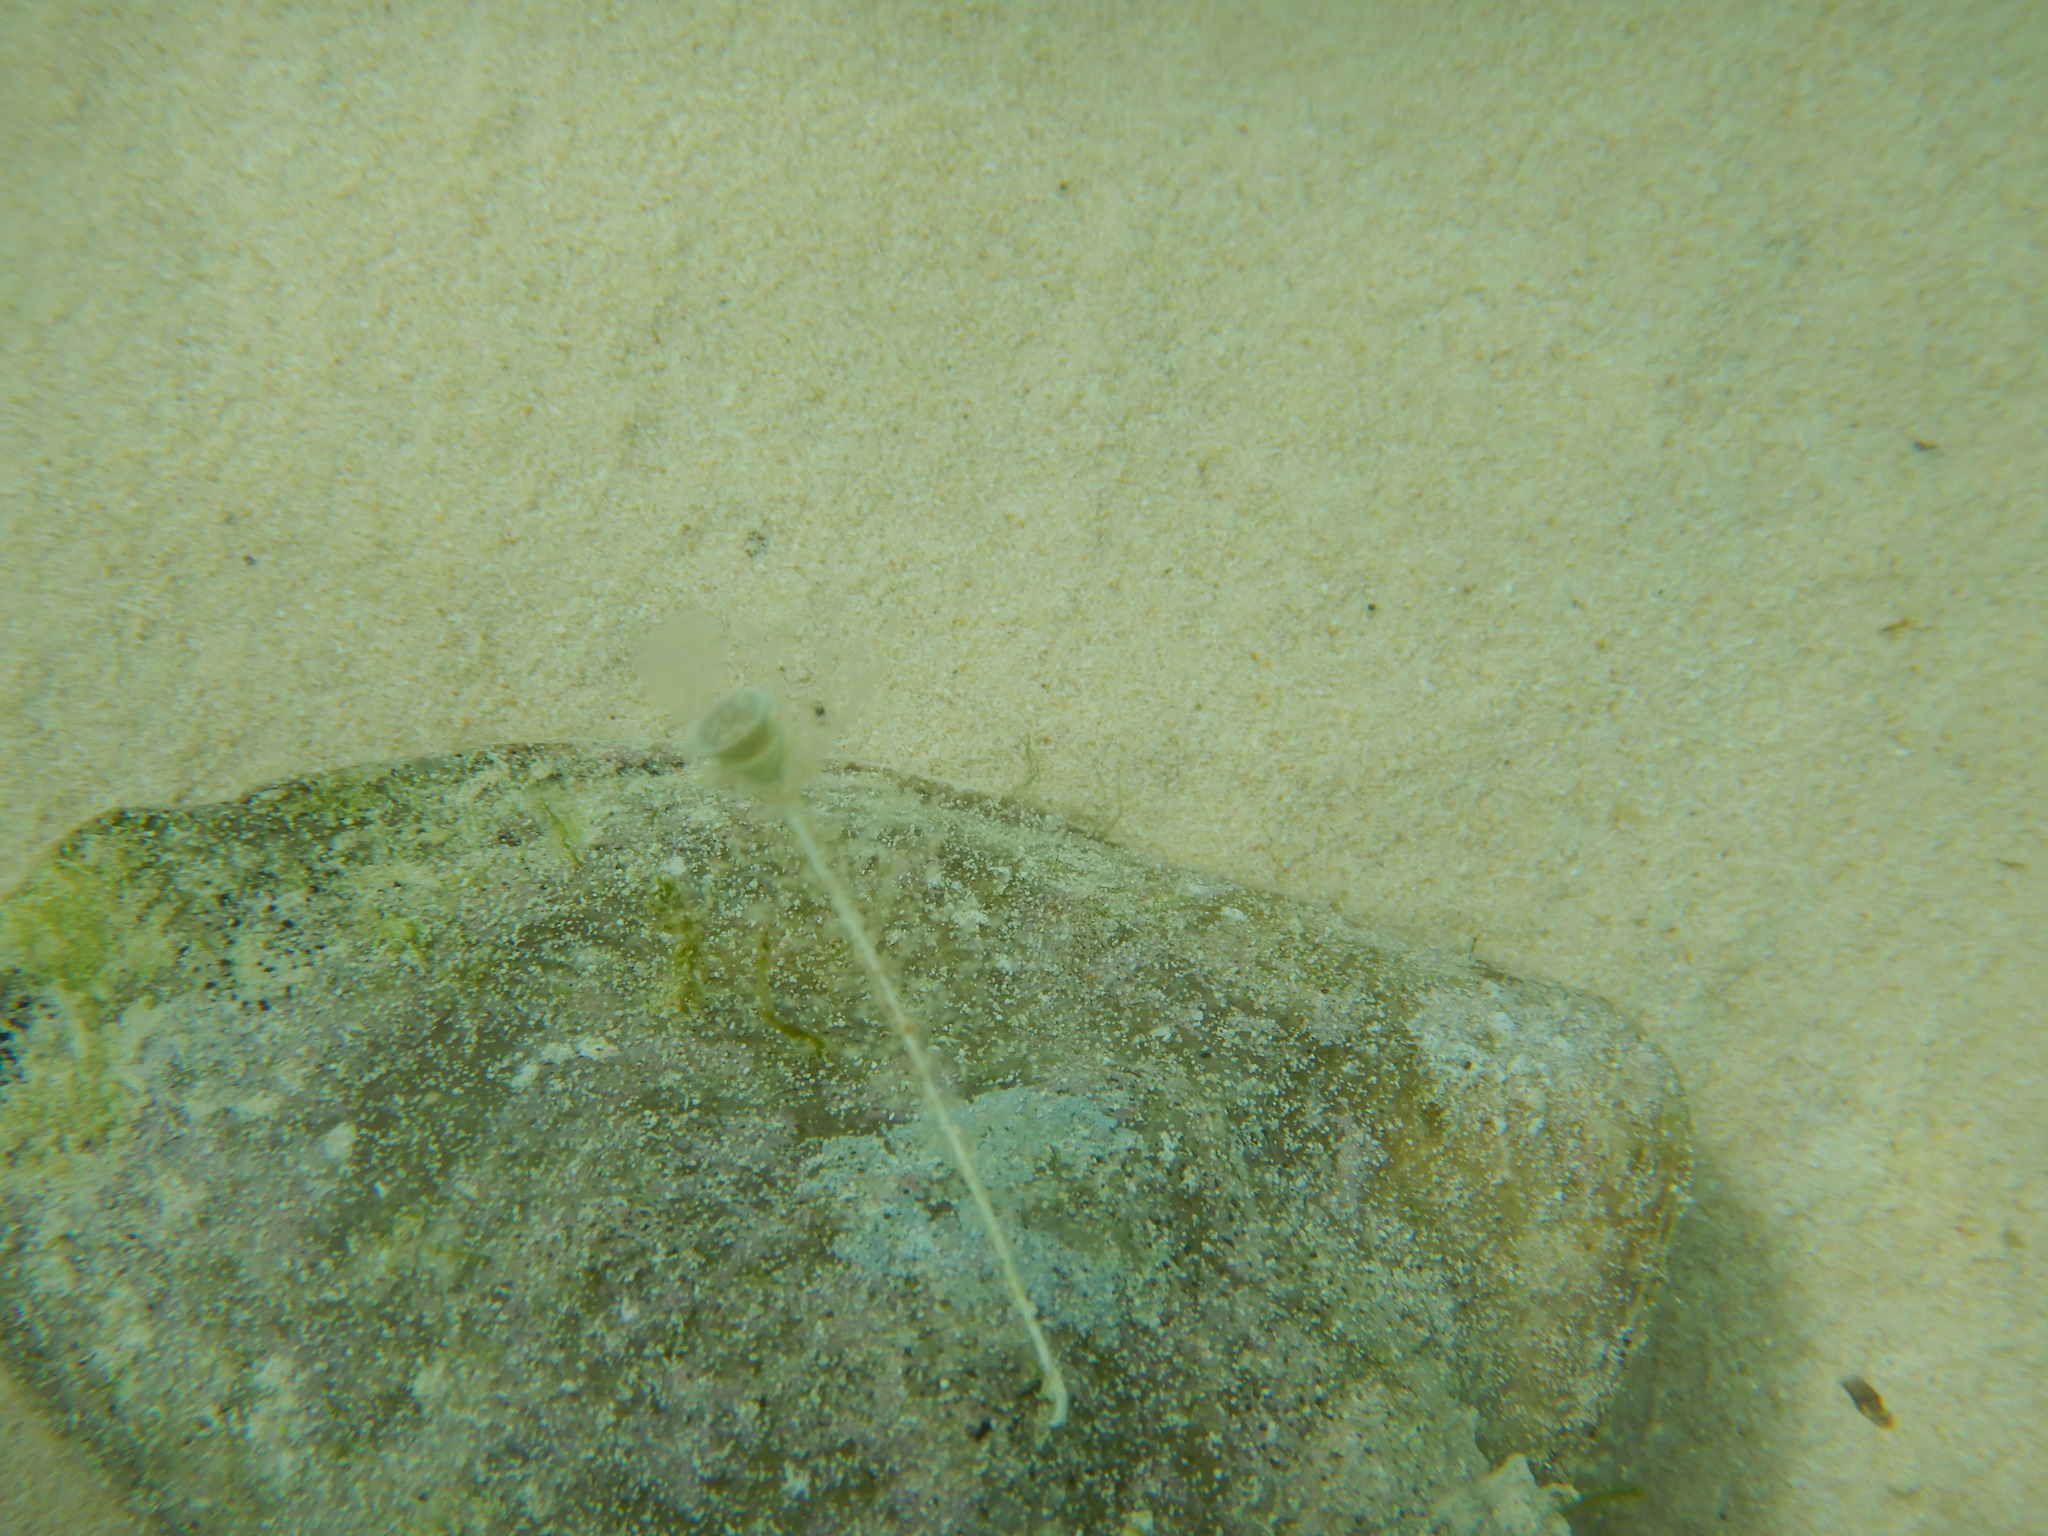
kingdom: Animalia
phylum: Mollusca
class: Gastropoda
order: Littorinimorpha
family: Strombidae
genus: Macrostrombus
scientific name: Macrostrombus costatus
